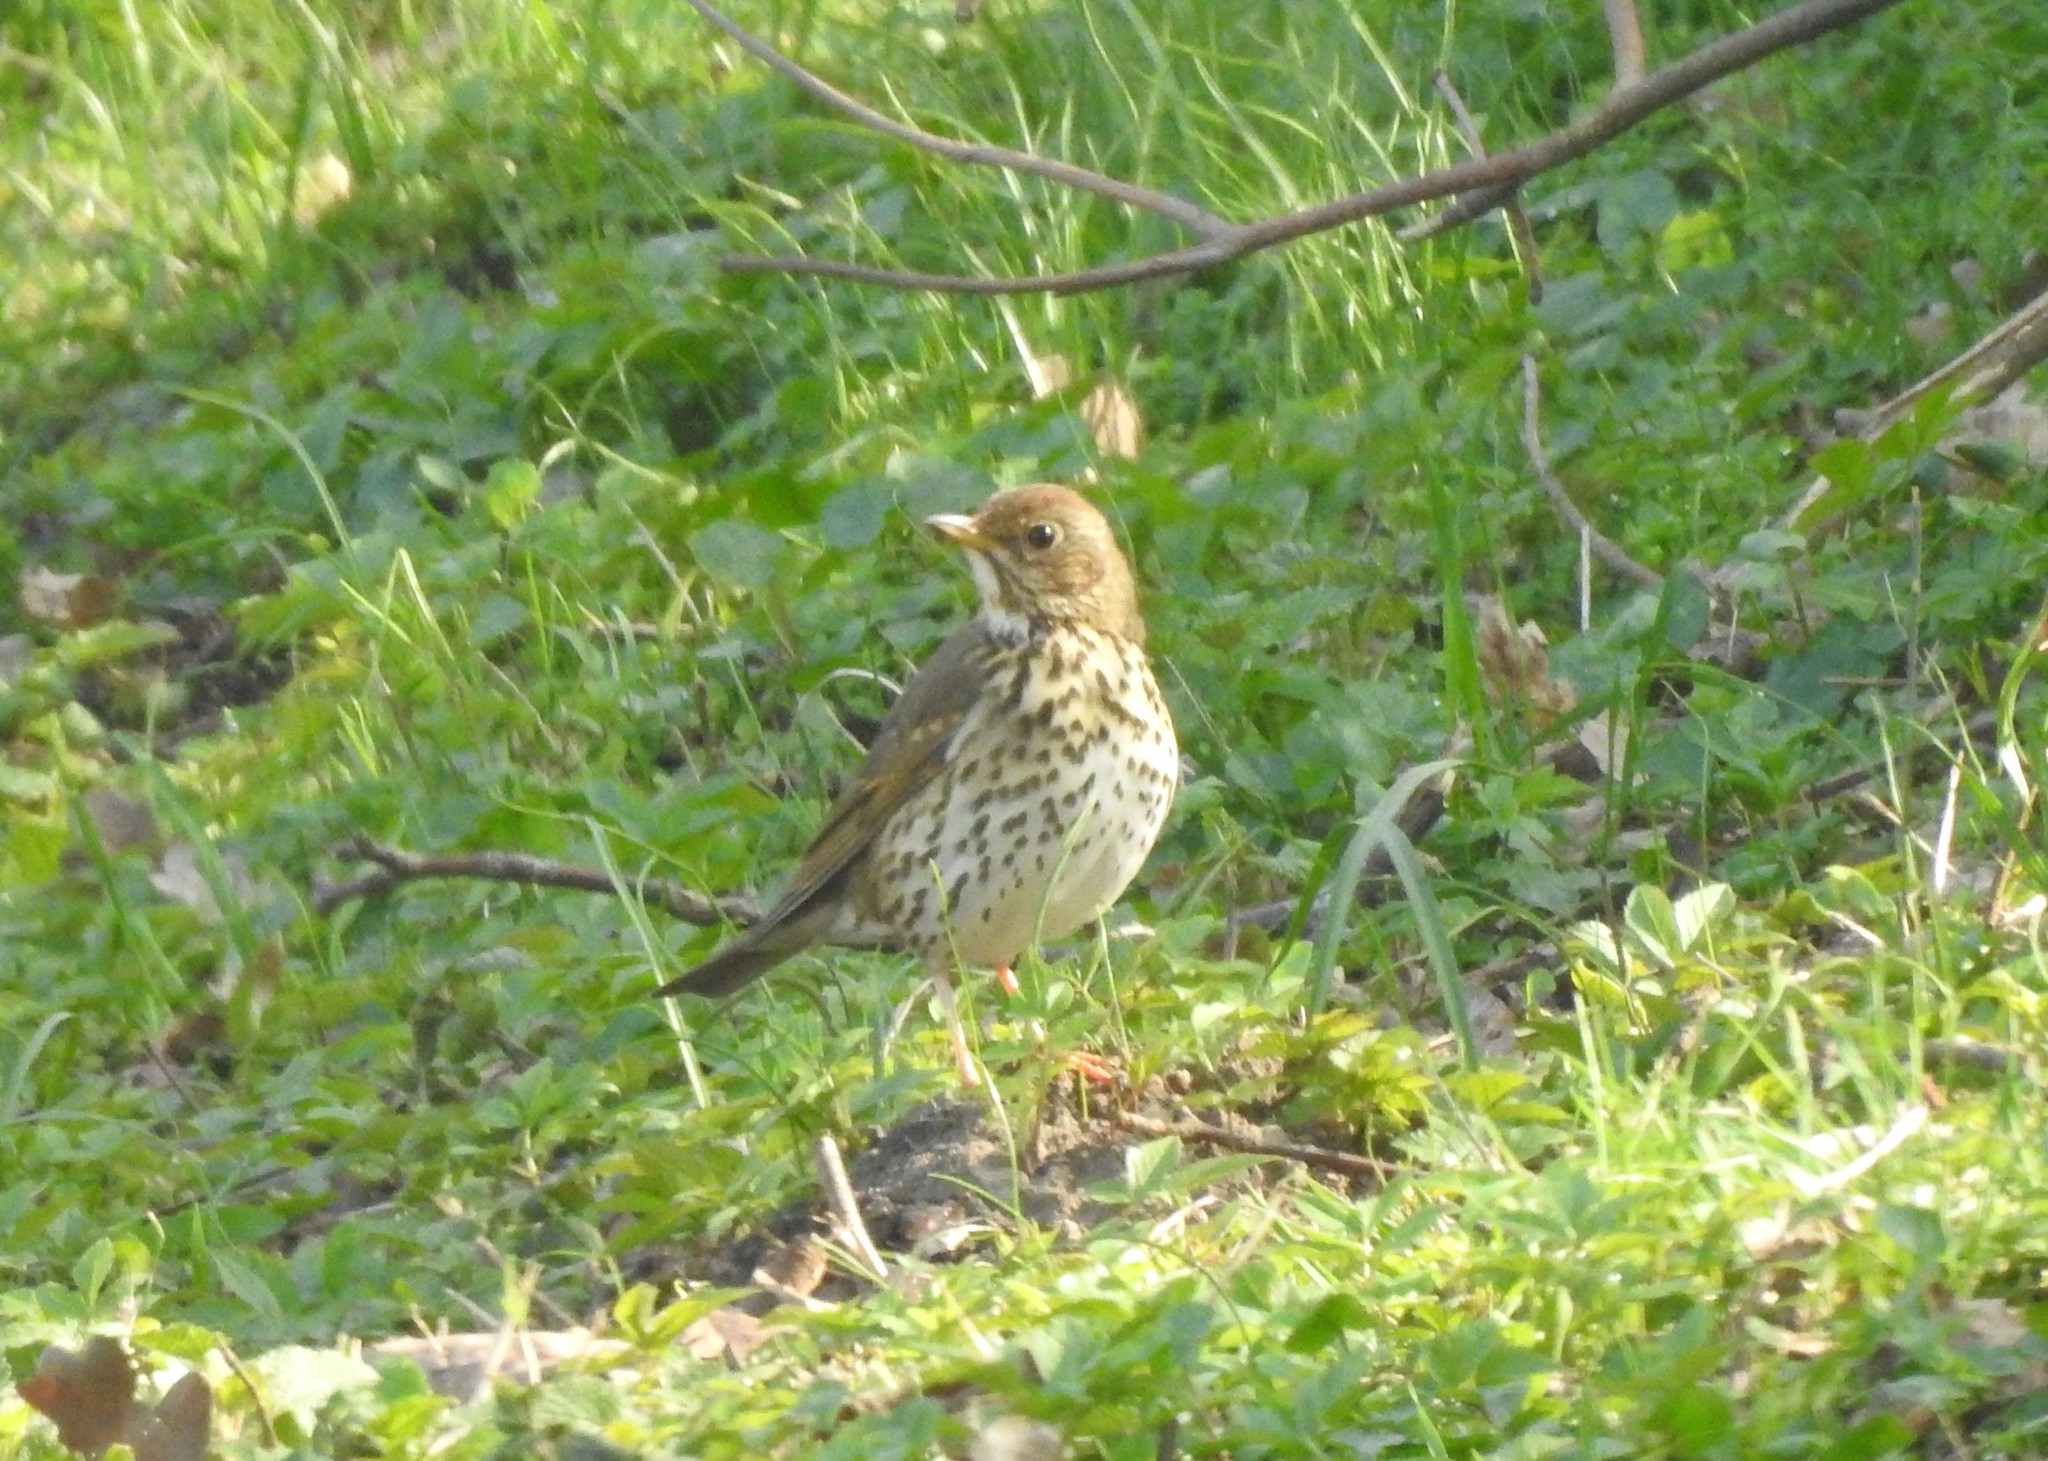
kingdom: Animalia
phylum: Chordata
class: Aves
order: Passeriformes
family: Turdidae
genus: Turdus
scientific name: Turdus philomelos
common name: Song thrush
